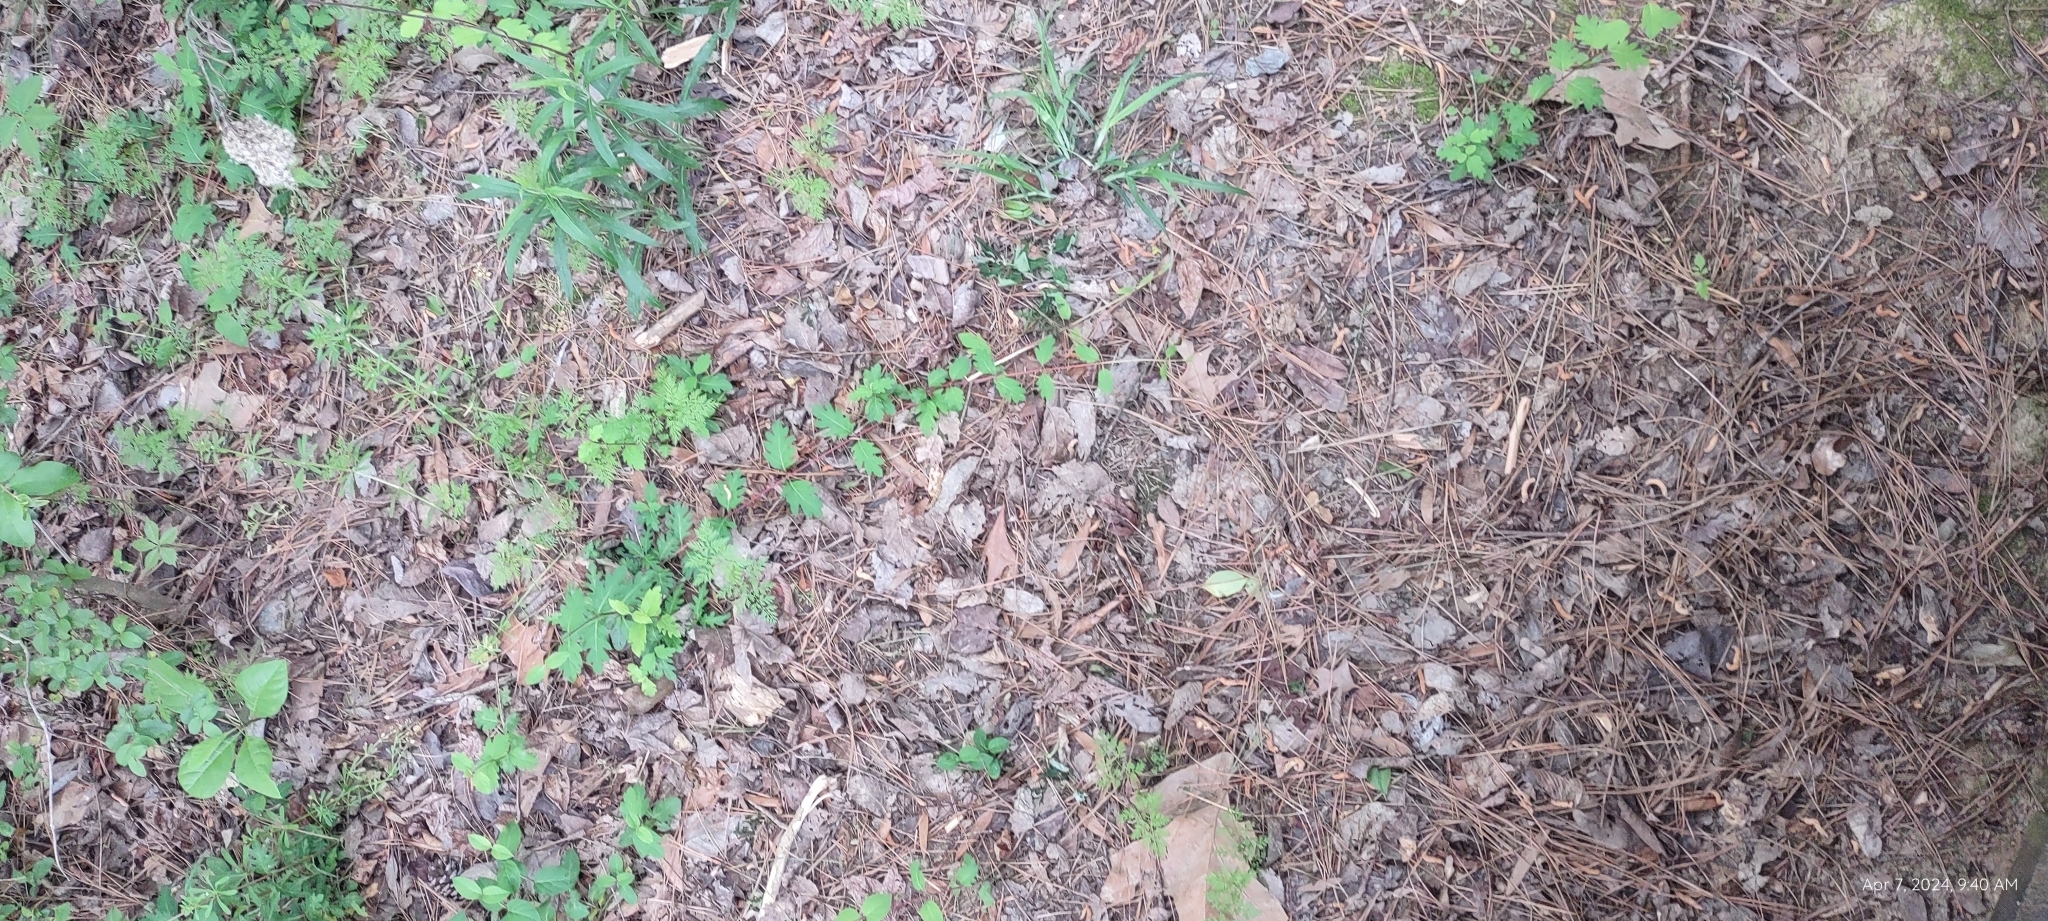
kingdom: Plantae
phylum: Tracheophyta
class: Magnoliopsida
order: Dipsacales
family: Caprifoliaceae
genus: Lonicera
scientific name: Lonicera japonica
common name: Japanese honeysuckle
